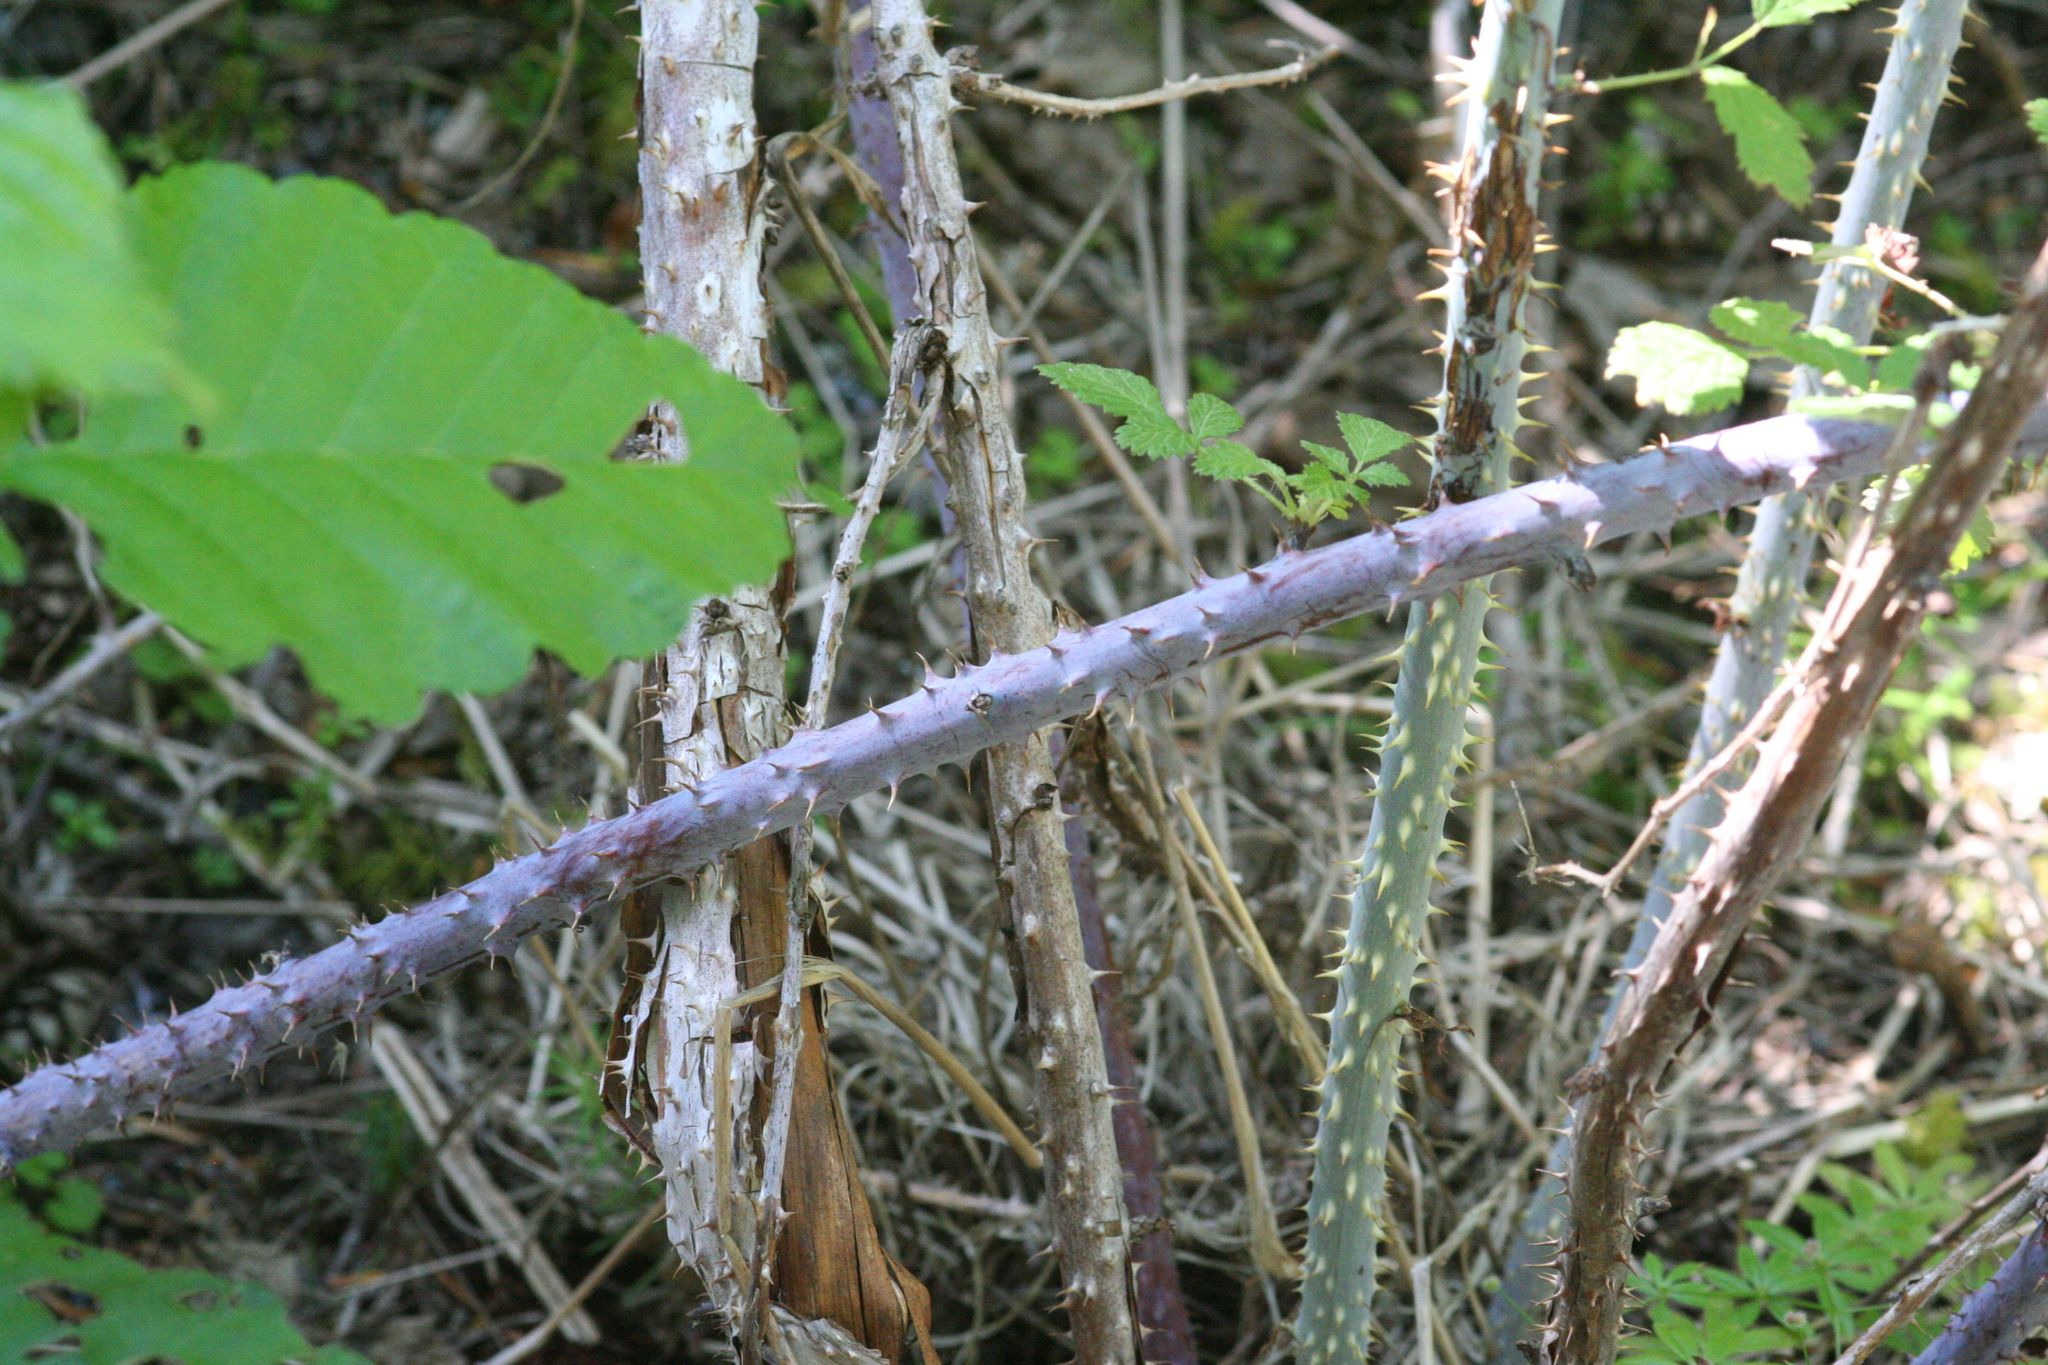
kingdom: Plantae
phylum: Tracheophyta
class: Magnoliopsida
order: Rosales
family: Rosaceae
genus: Rubus
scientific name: Rubus leucodermis
